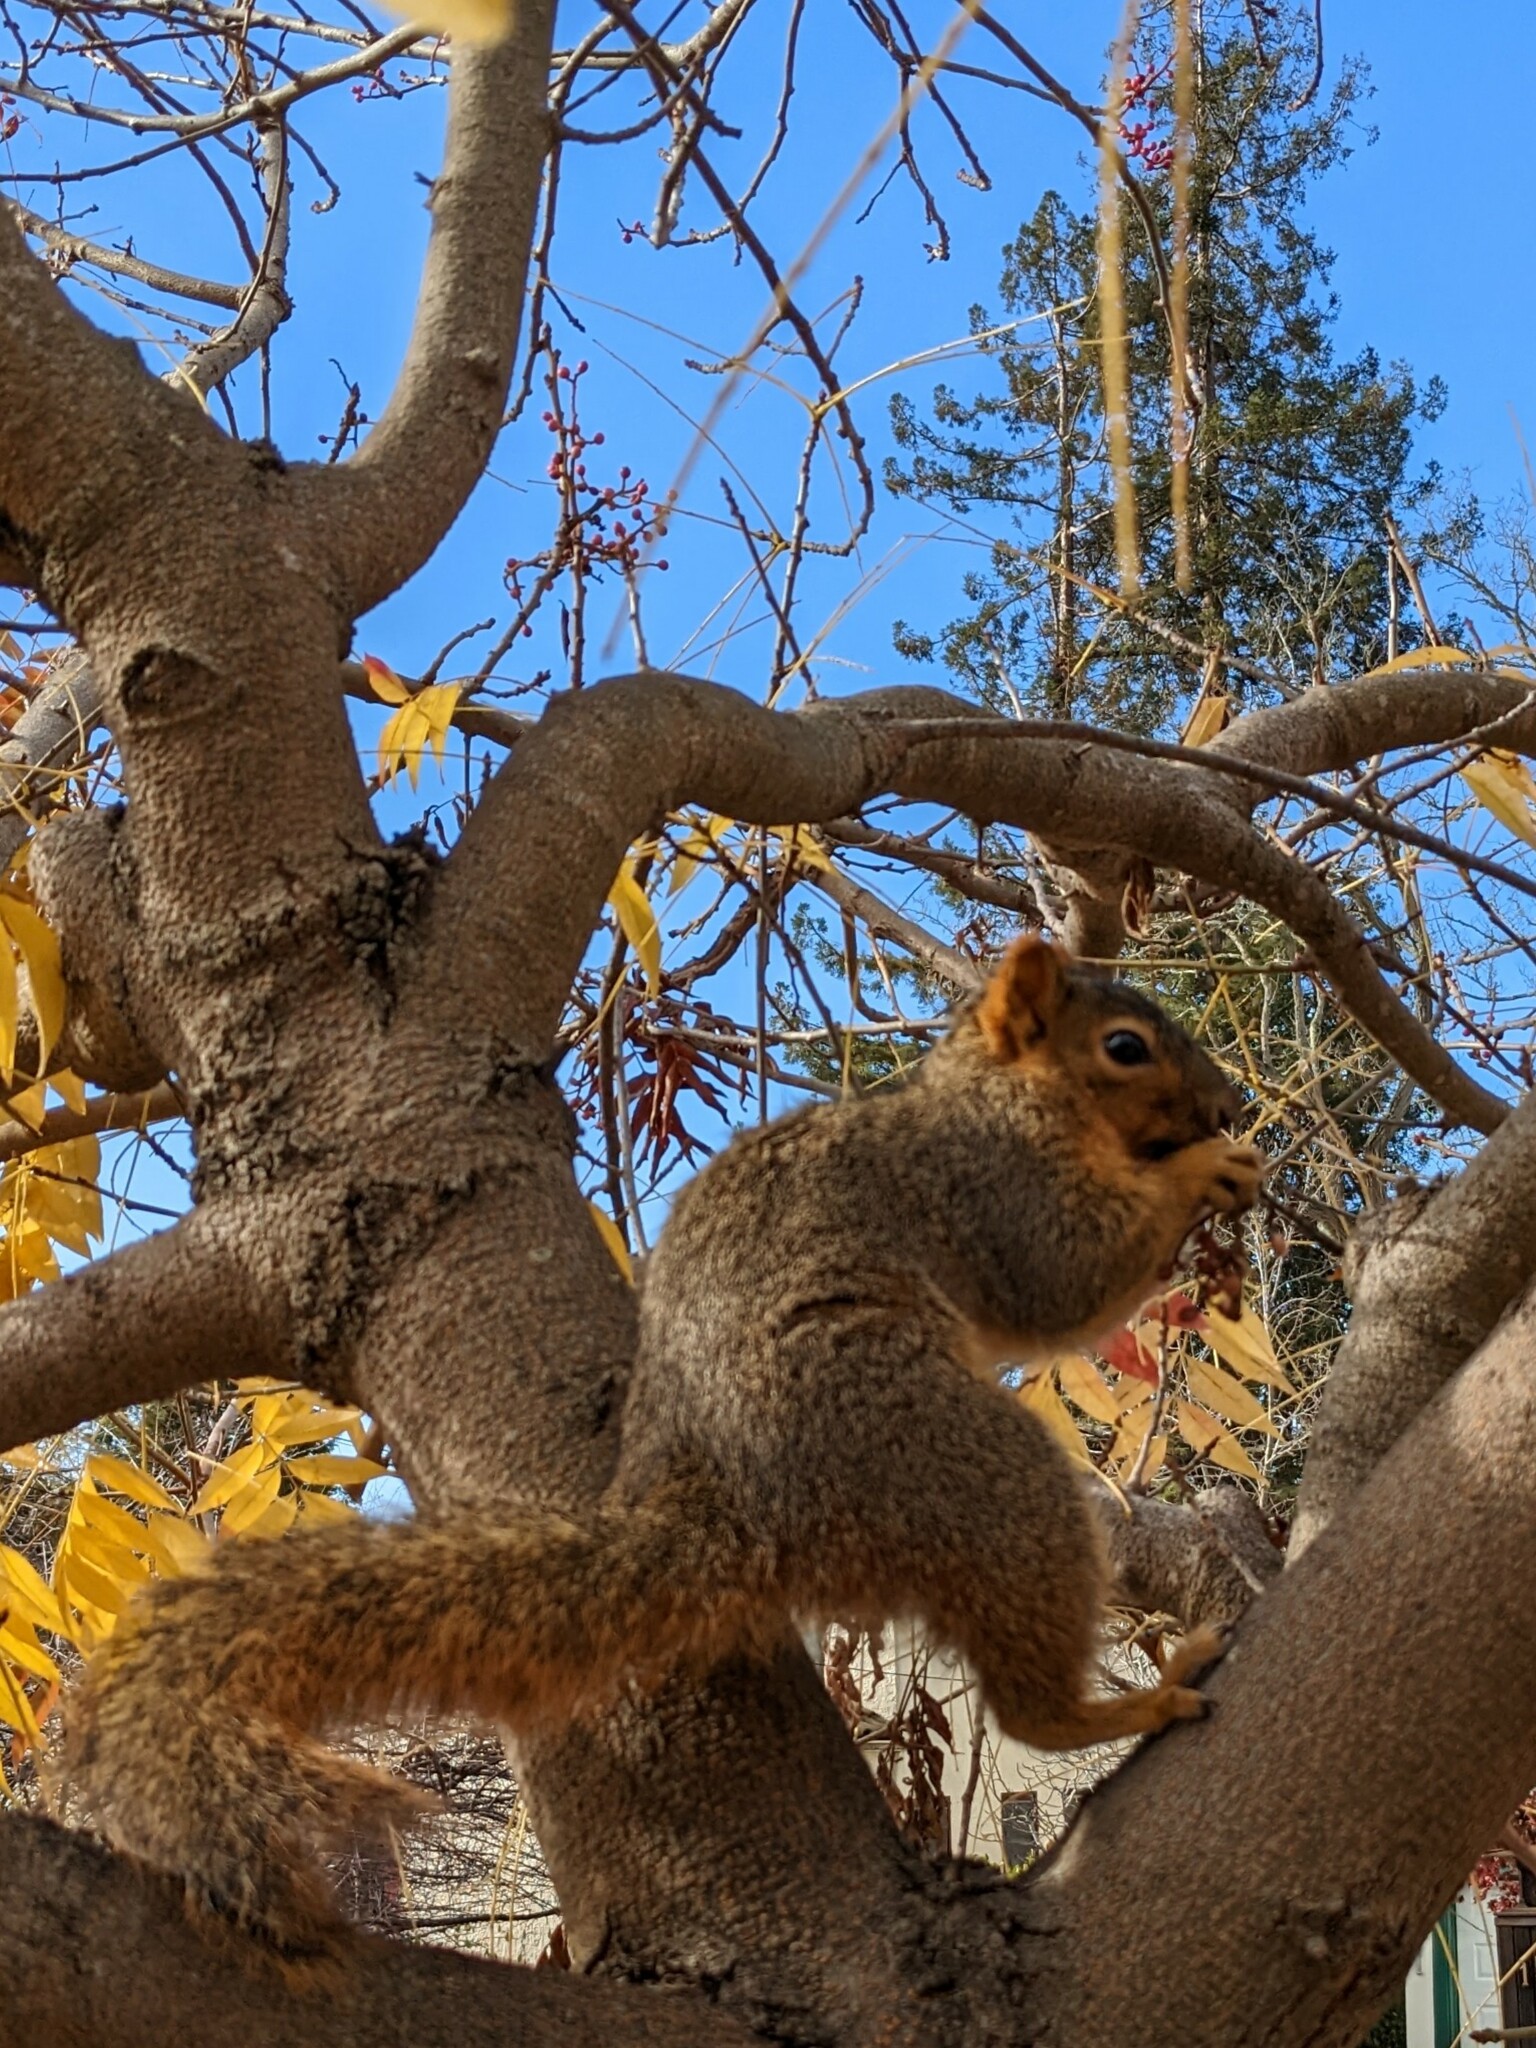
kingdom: Animalia
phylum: Chordata
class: Mammalia
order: Rodentia
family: Sciuridae
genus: Sciurus
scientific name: Sciurus niger
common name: Fox squirrel
